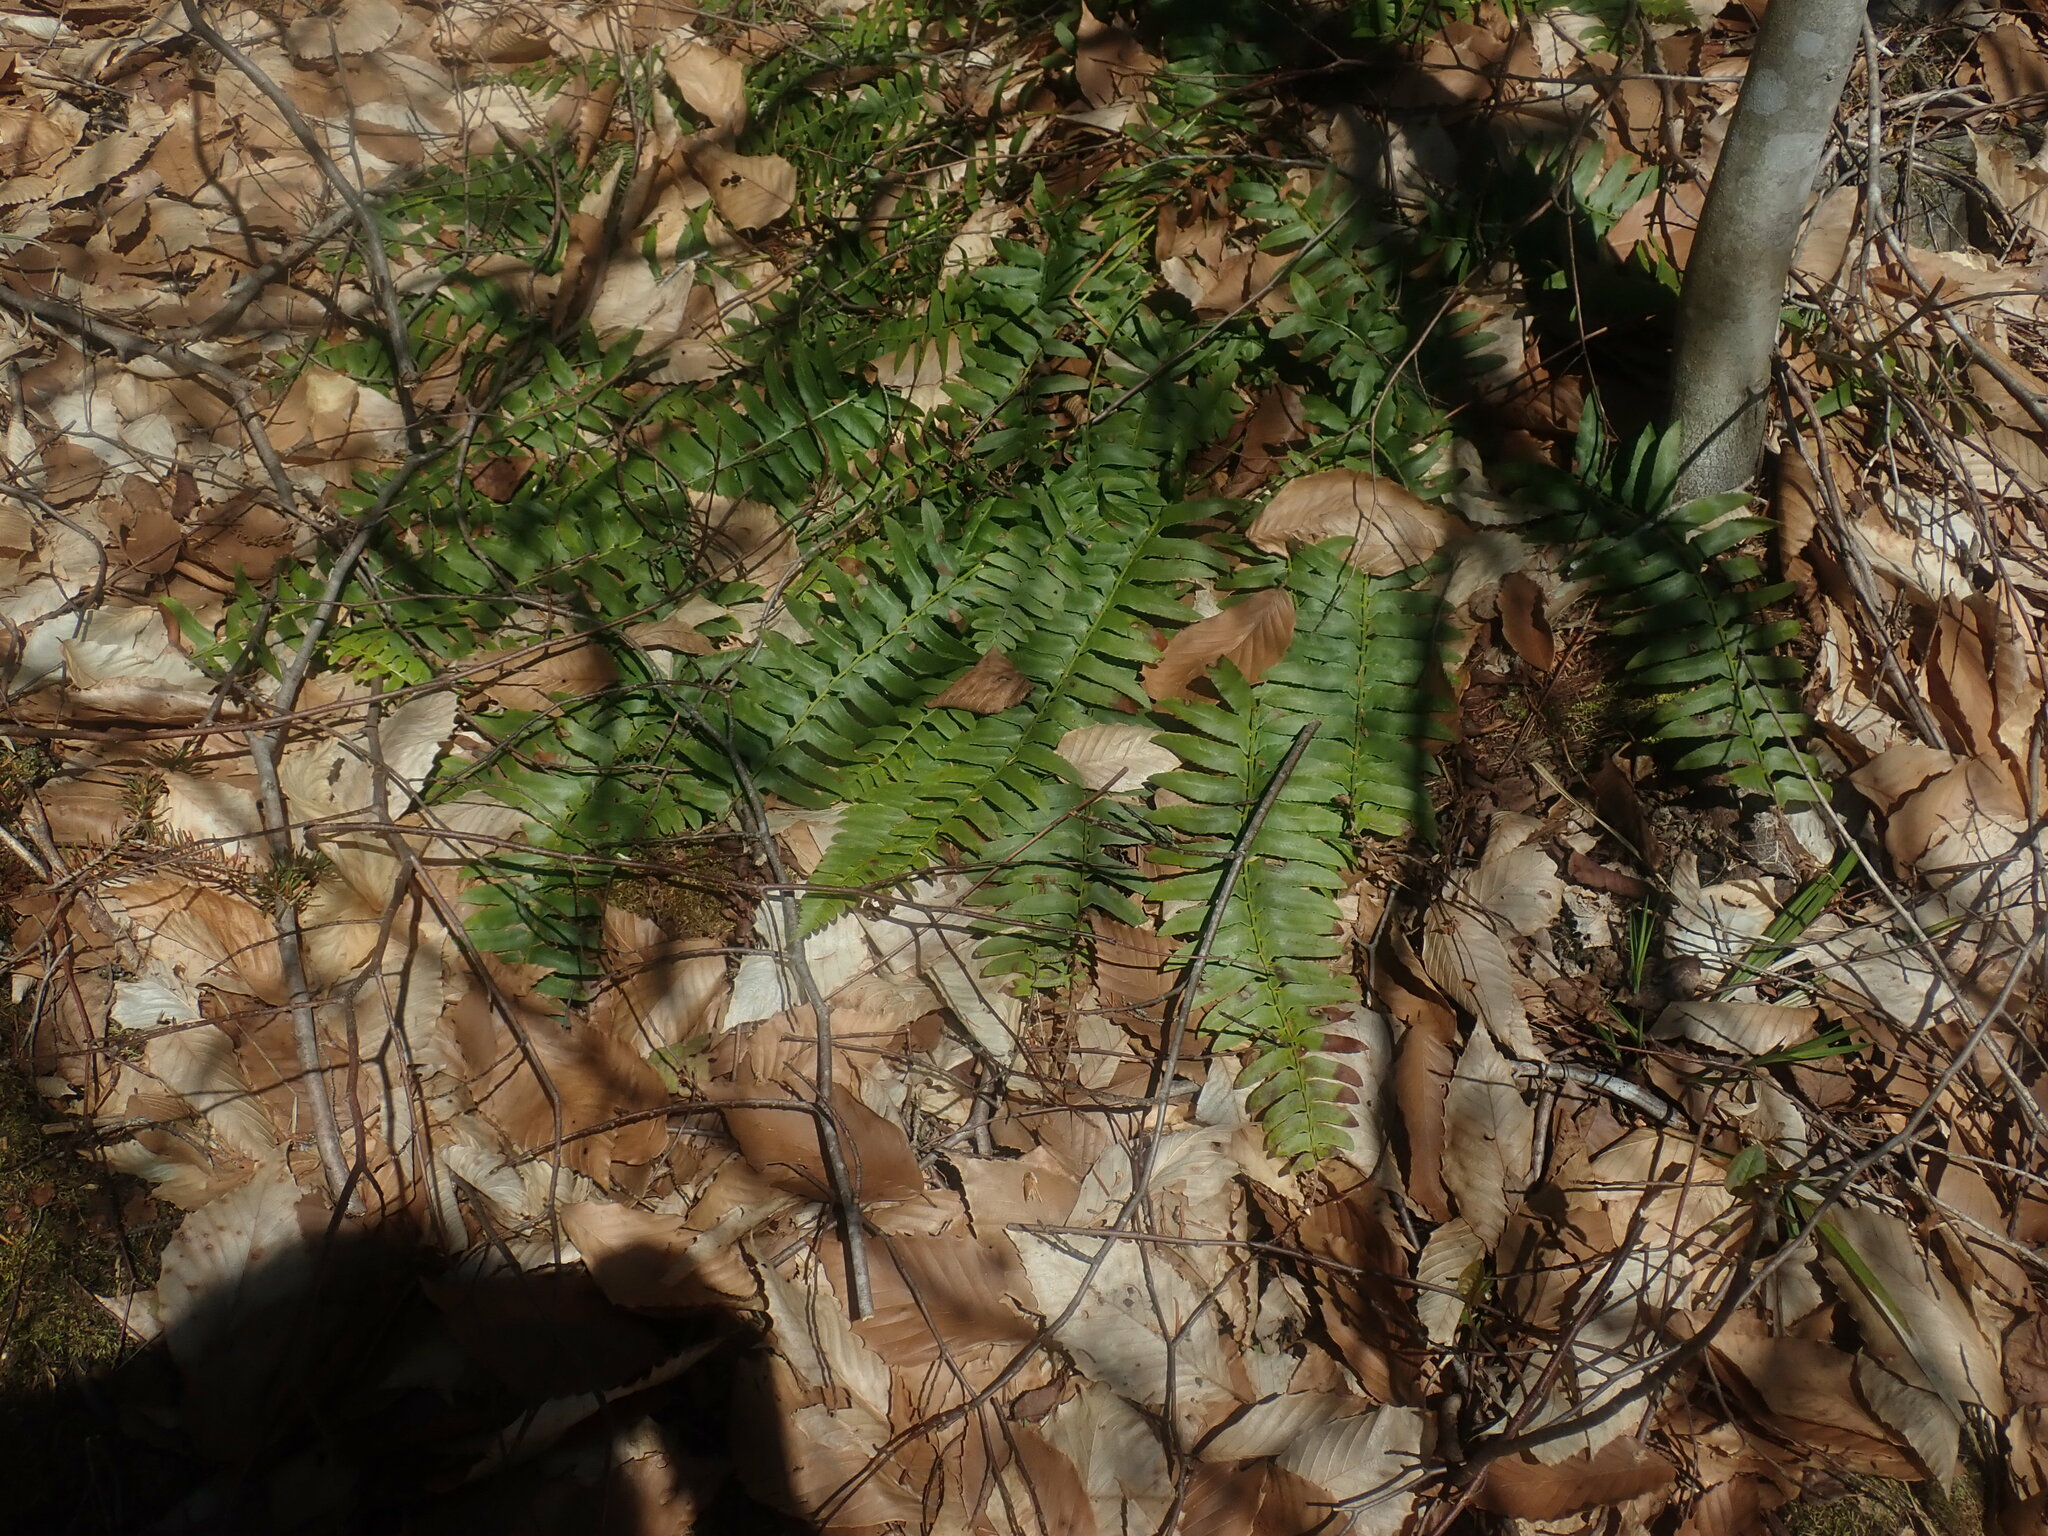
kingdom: Plantae
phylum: Tracheophyta
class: Polypodiopsida
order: Polypodiales
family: Dryopteridaceae
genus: Polystichum
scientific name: Polystichum acrostichoides
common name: Christmas fern
